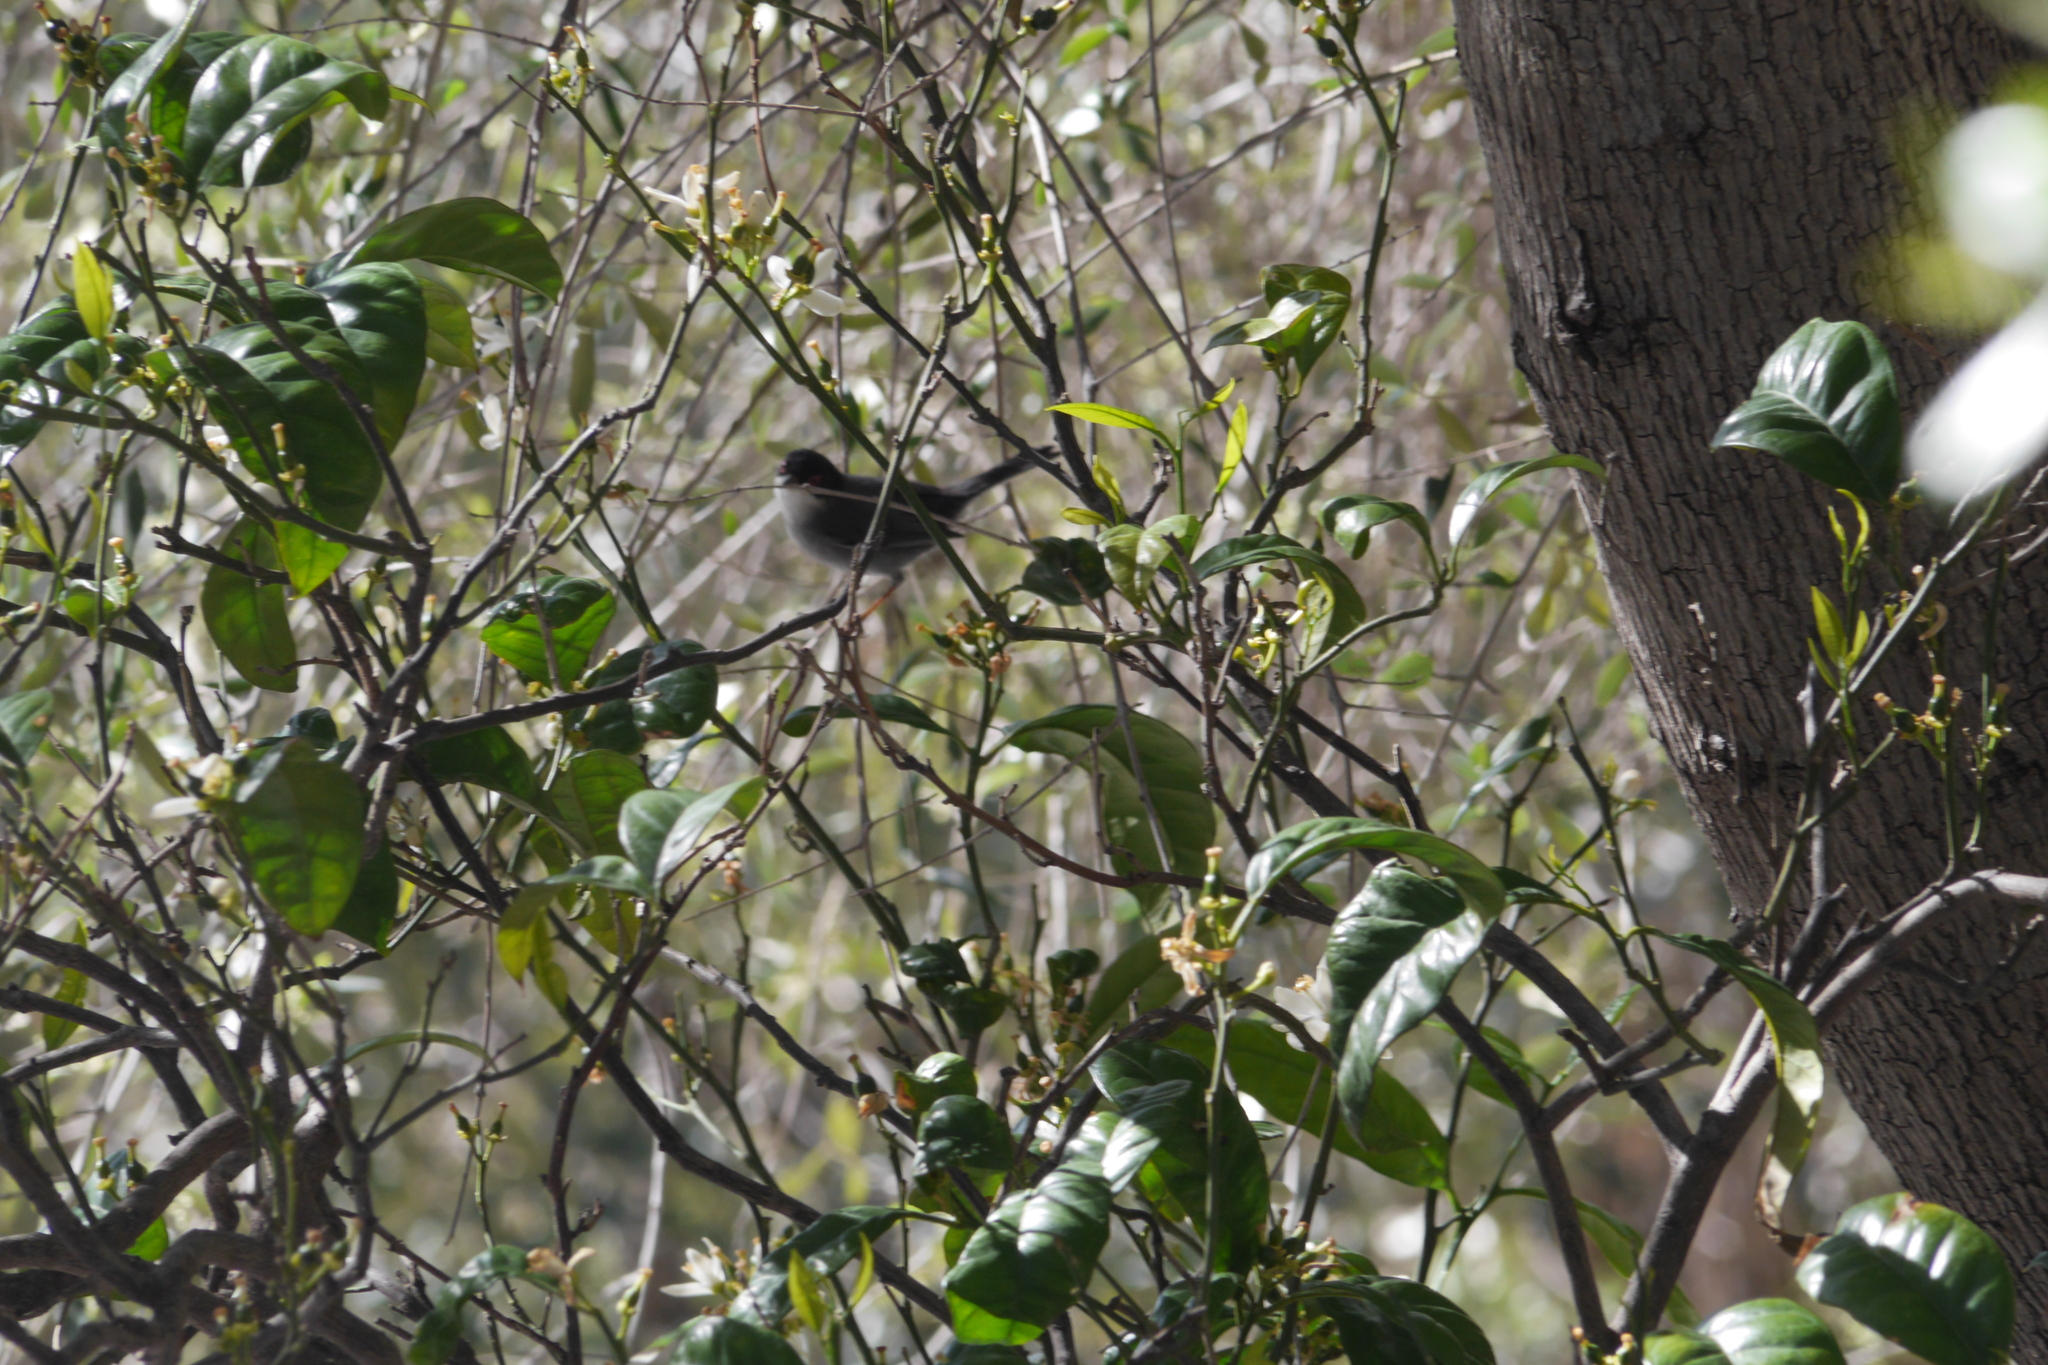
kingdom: Animalia
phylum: Chordata
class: Aves
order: Passeriformes
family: Sylviidae
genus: Curruca
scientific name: Curruca melanocephala
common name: Sardinian warbler
